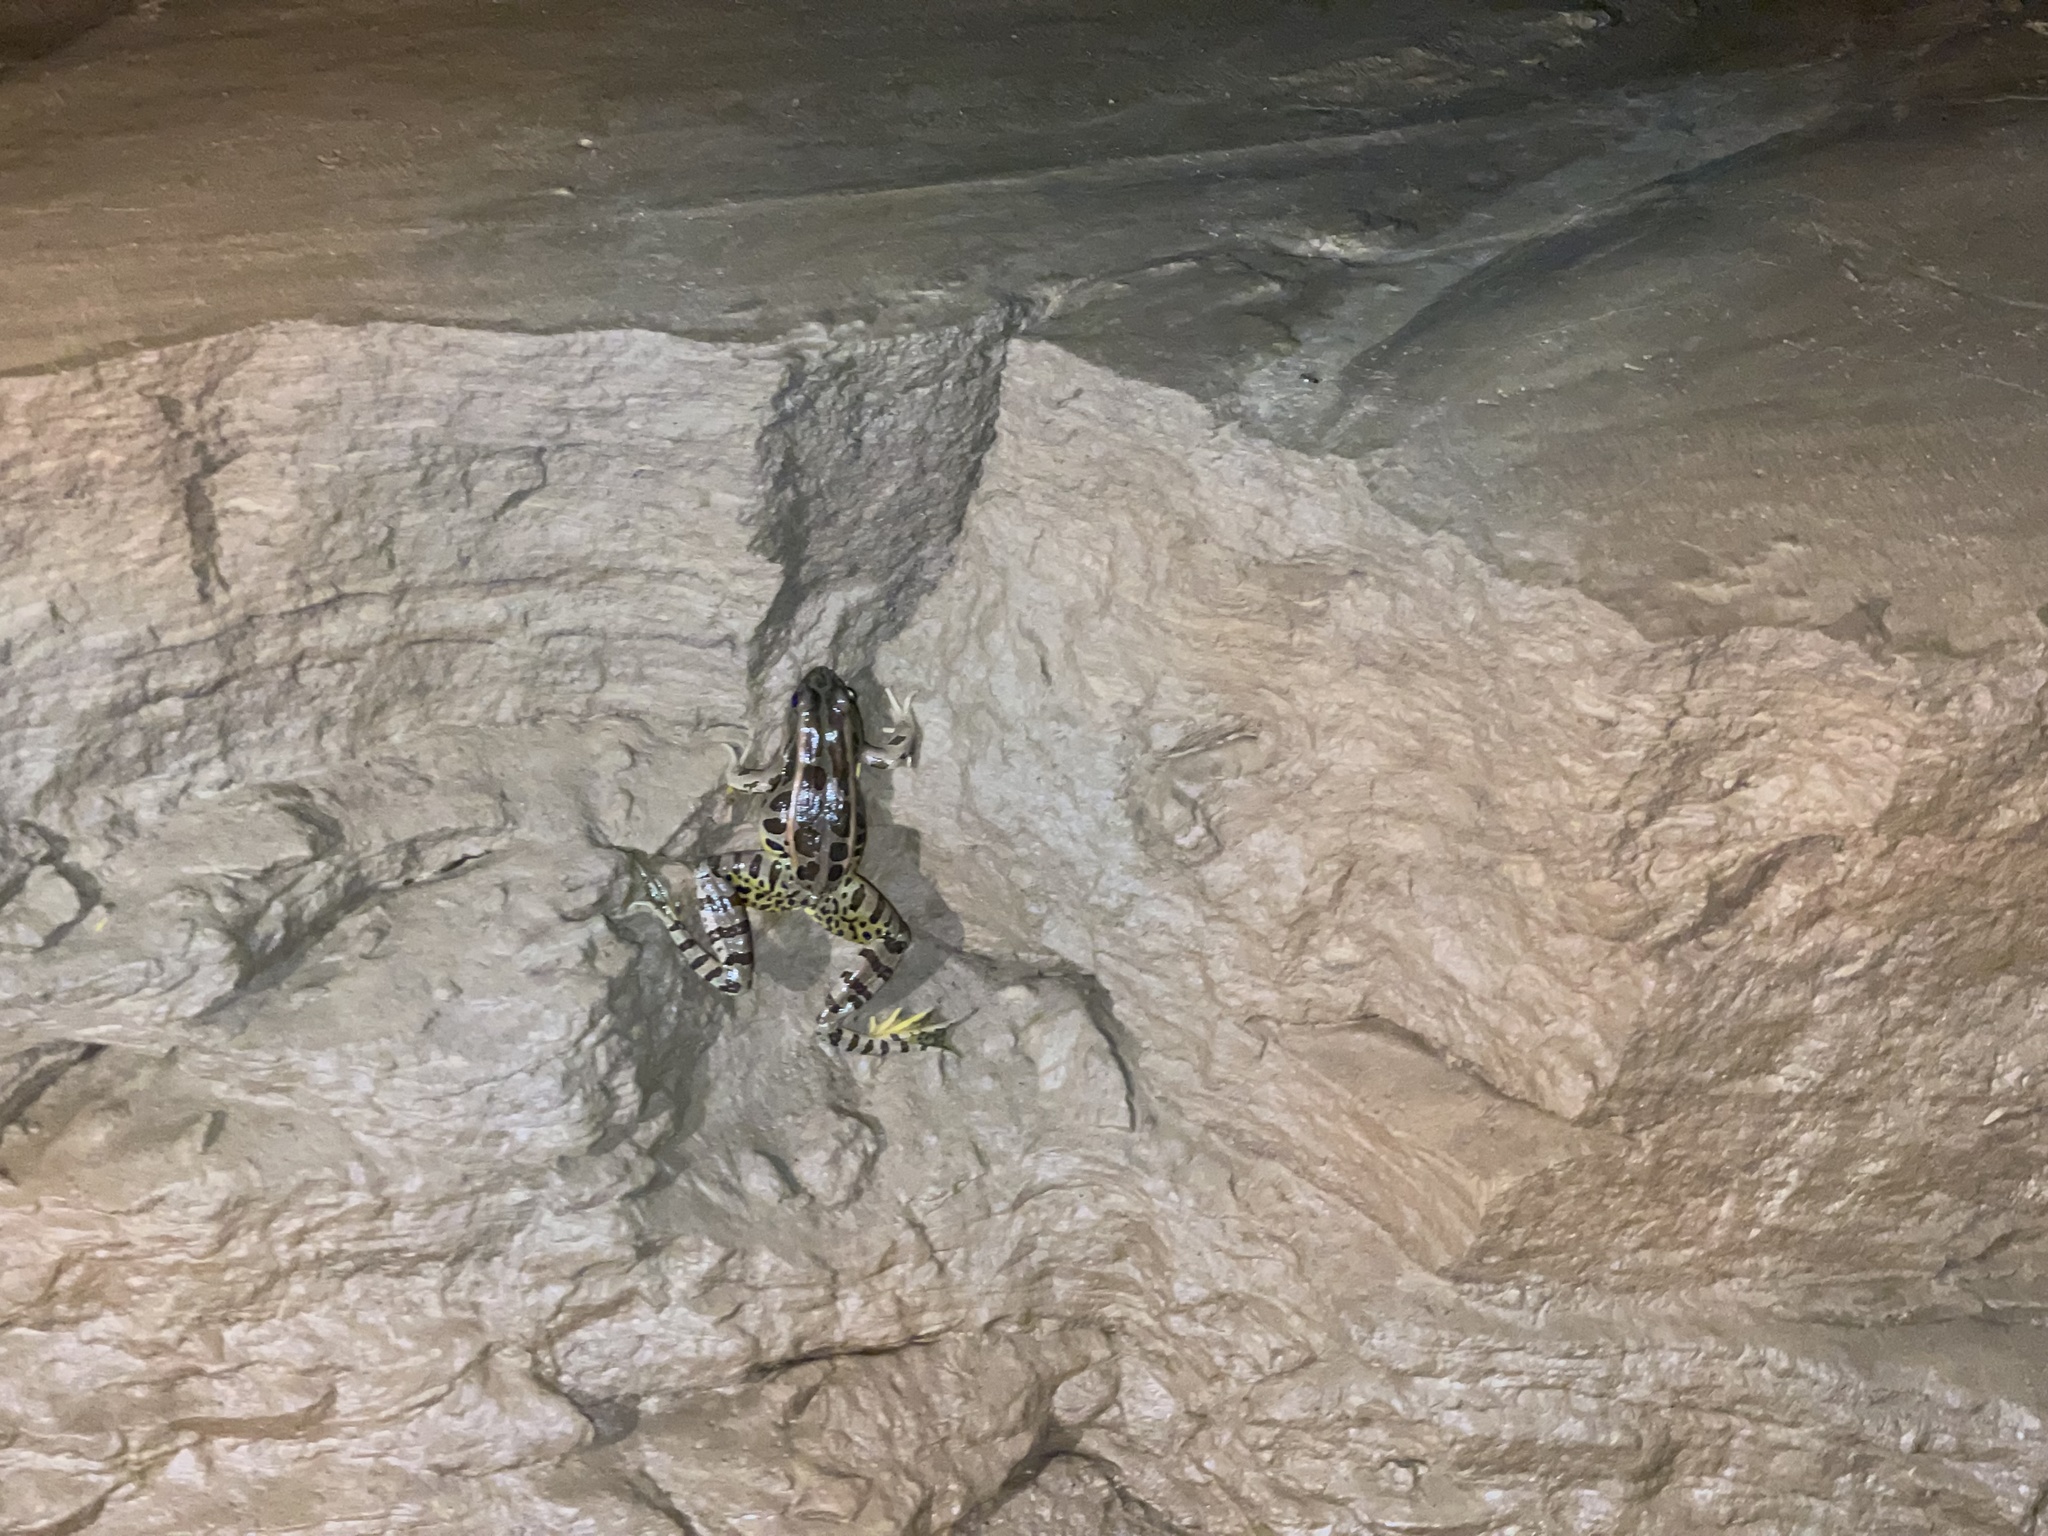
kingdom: Animalia
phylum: Chordata
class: Amphibia
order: Anura
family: Ranidae
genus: Lithobates
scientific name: Lithobates palustris
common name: Pickerel frog
